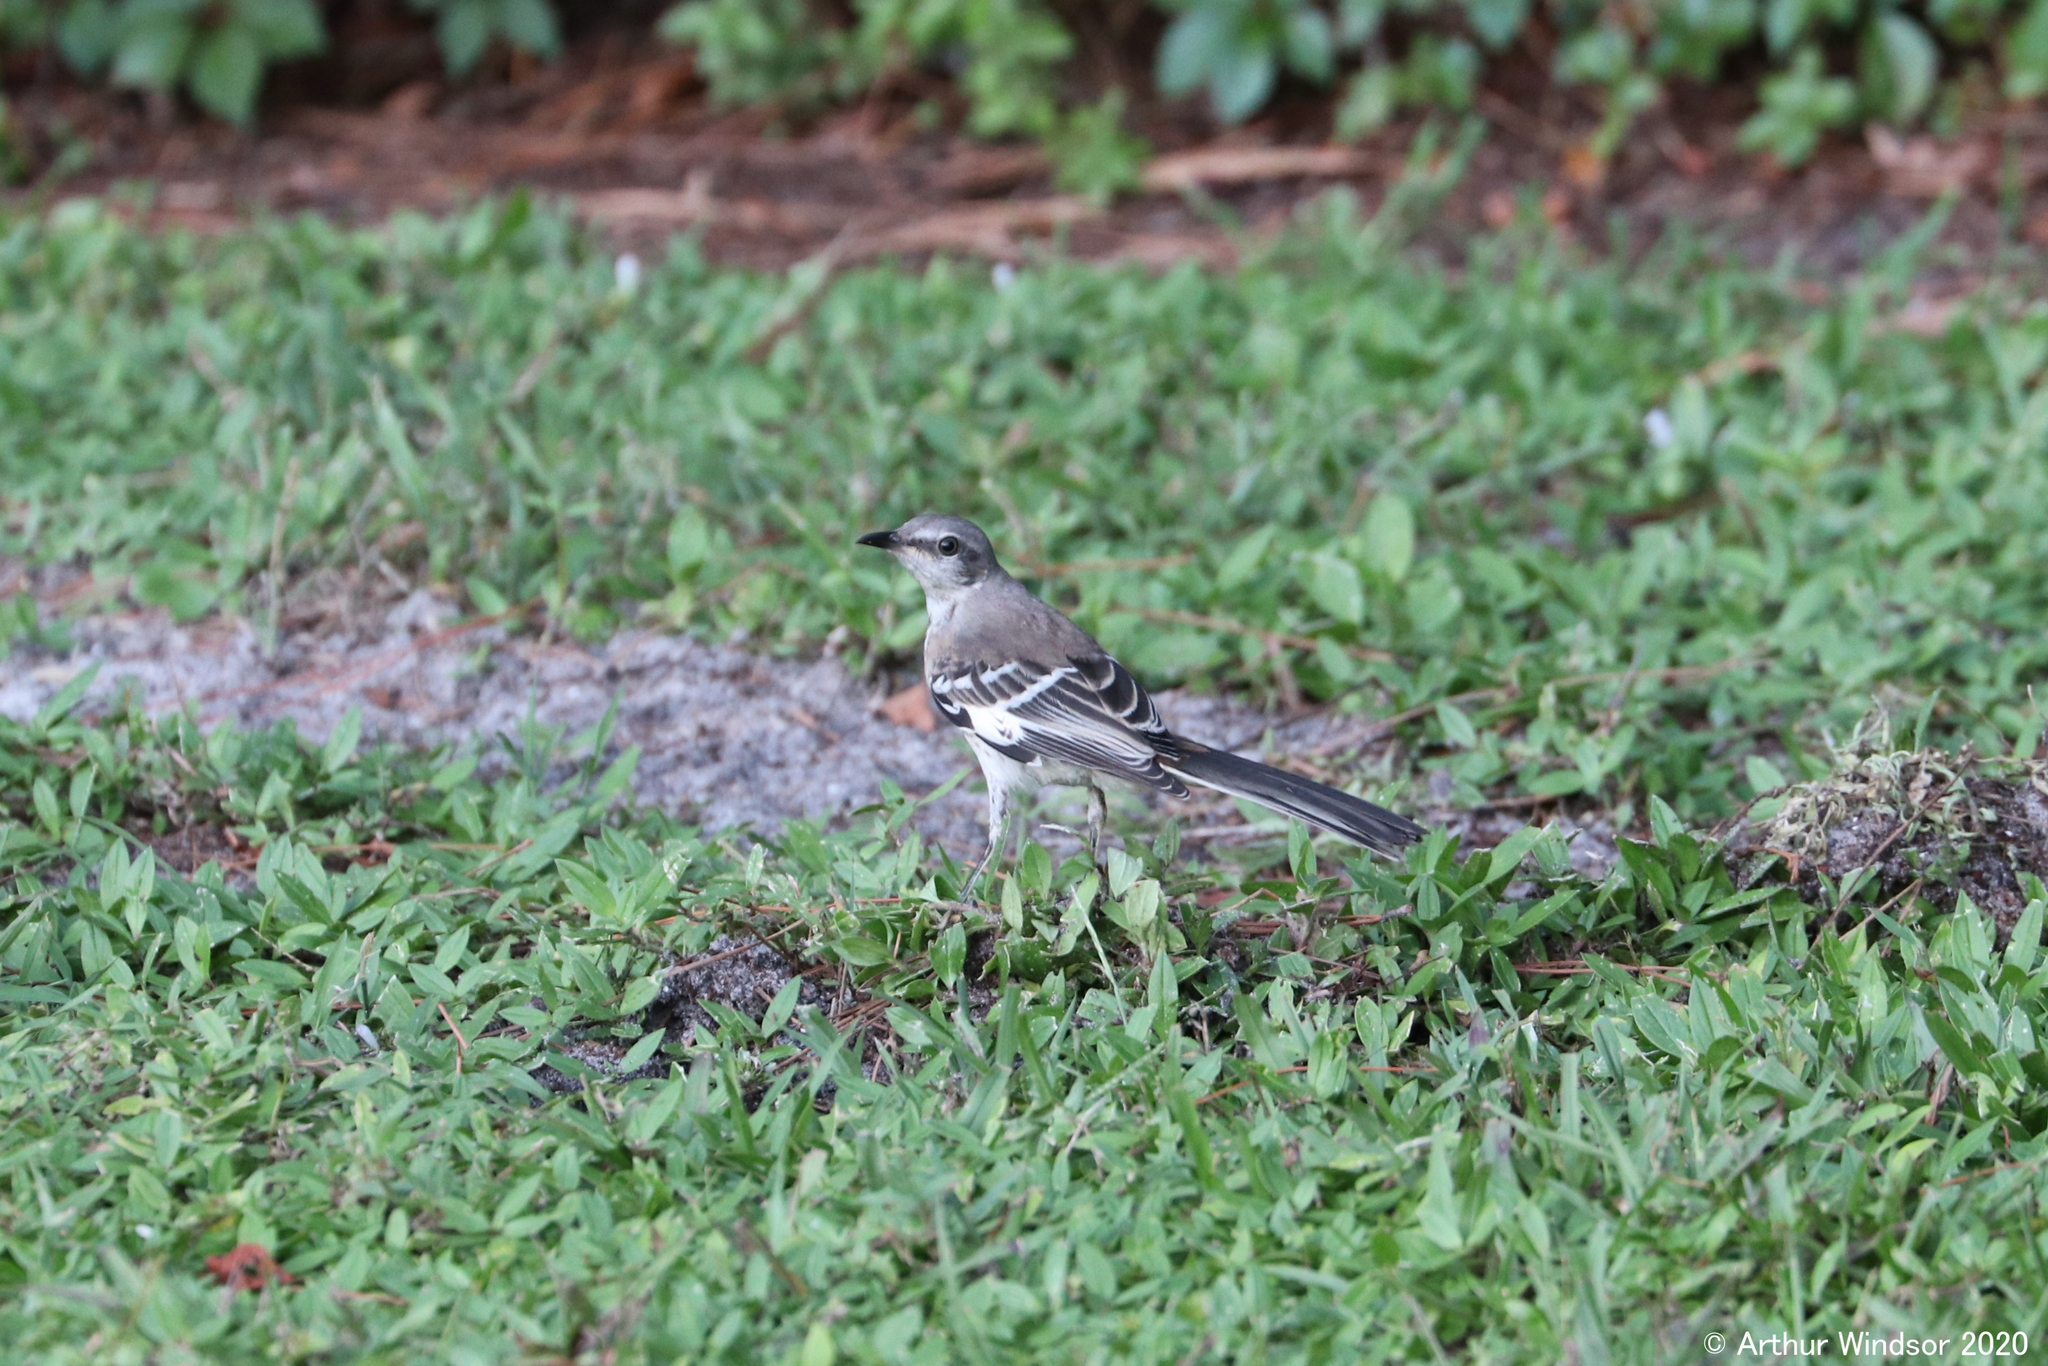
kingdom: Animalia
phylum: Chordata
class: Aves
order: Passeriformes
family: Mimidae
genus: Mimus
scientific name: Mimus polyglottos
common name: Northern mockingbird
